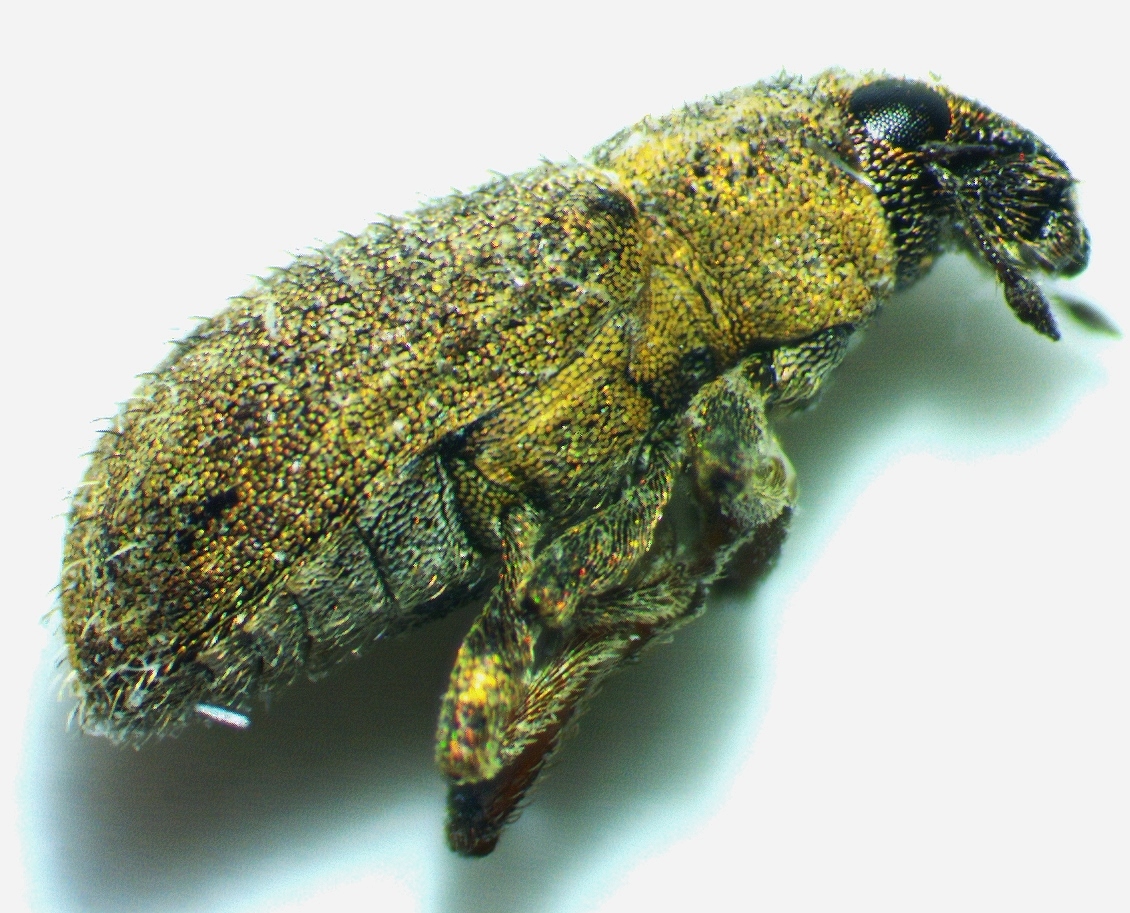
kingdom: Animalia
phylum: Arthropoda
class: Insecta
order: Coleoptera
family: Curculionidae
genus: Sitona
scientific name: Sitona hispidulus
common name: Clover weevil
